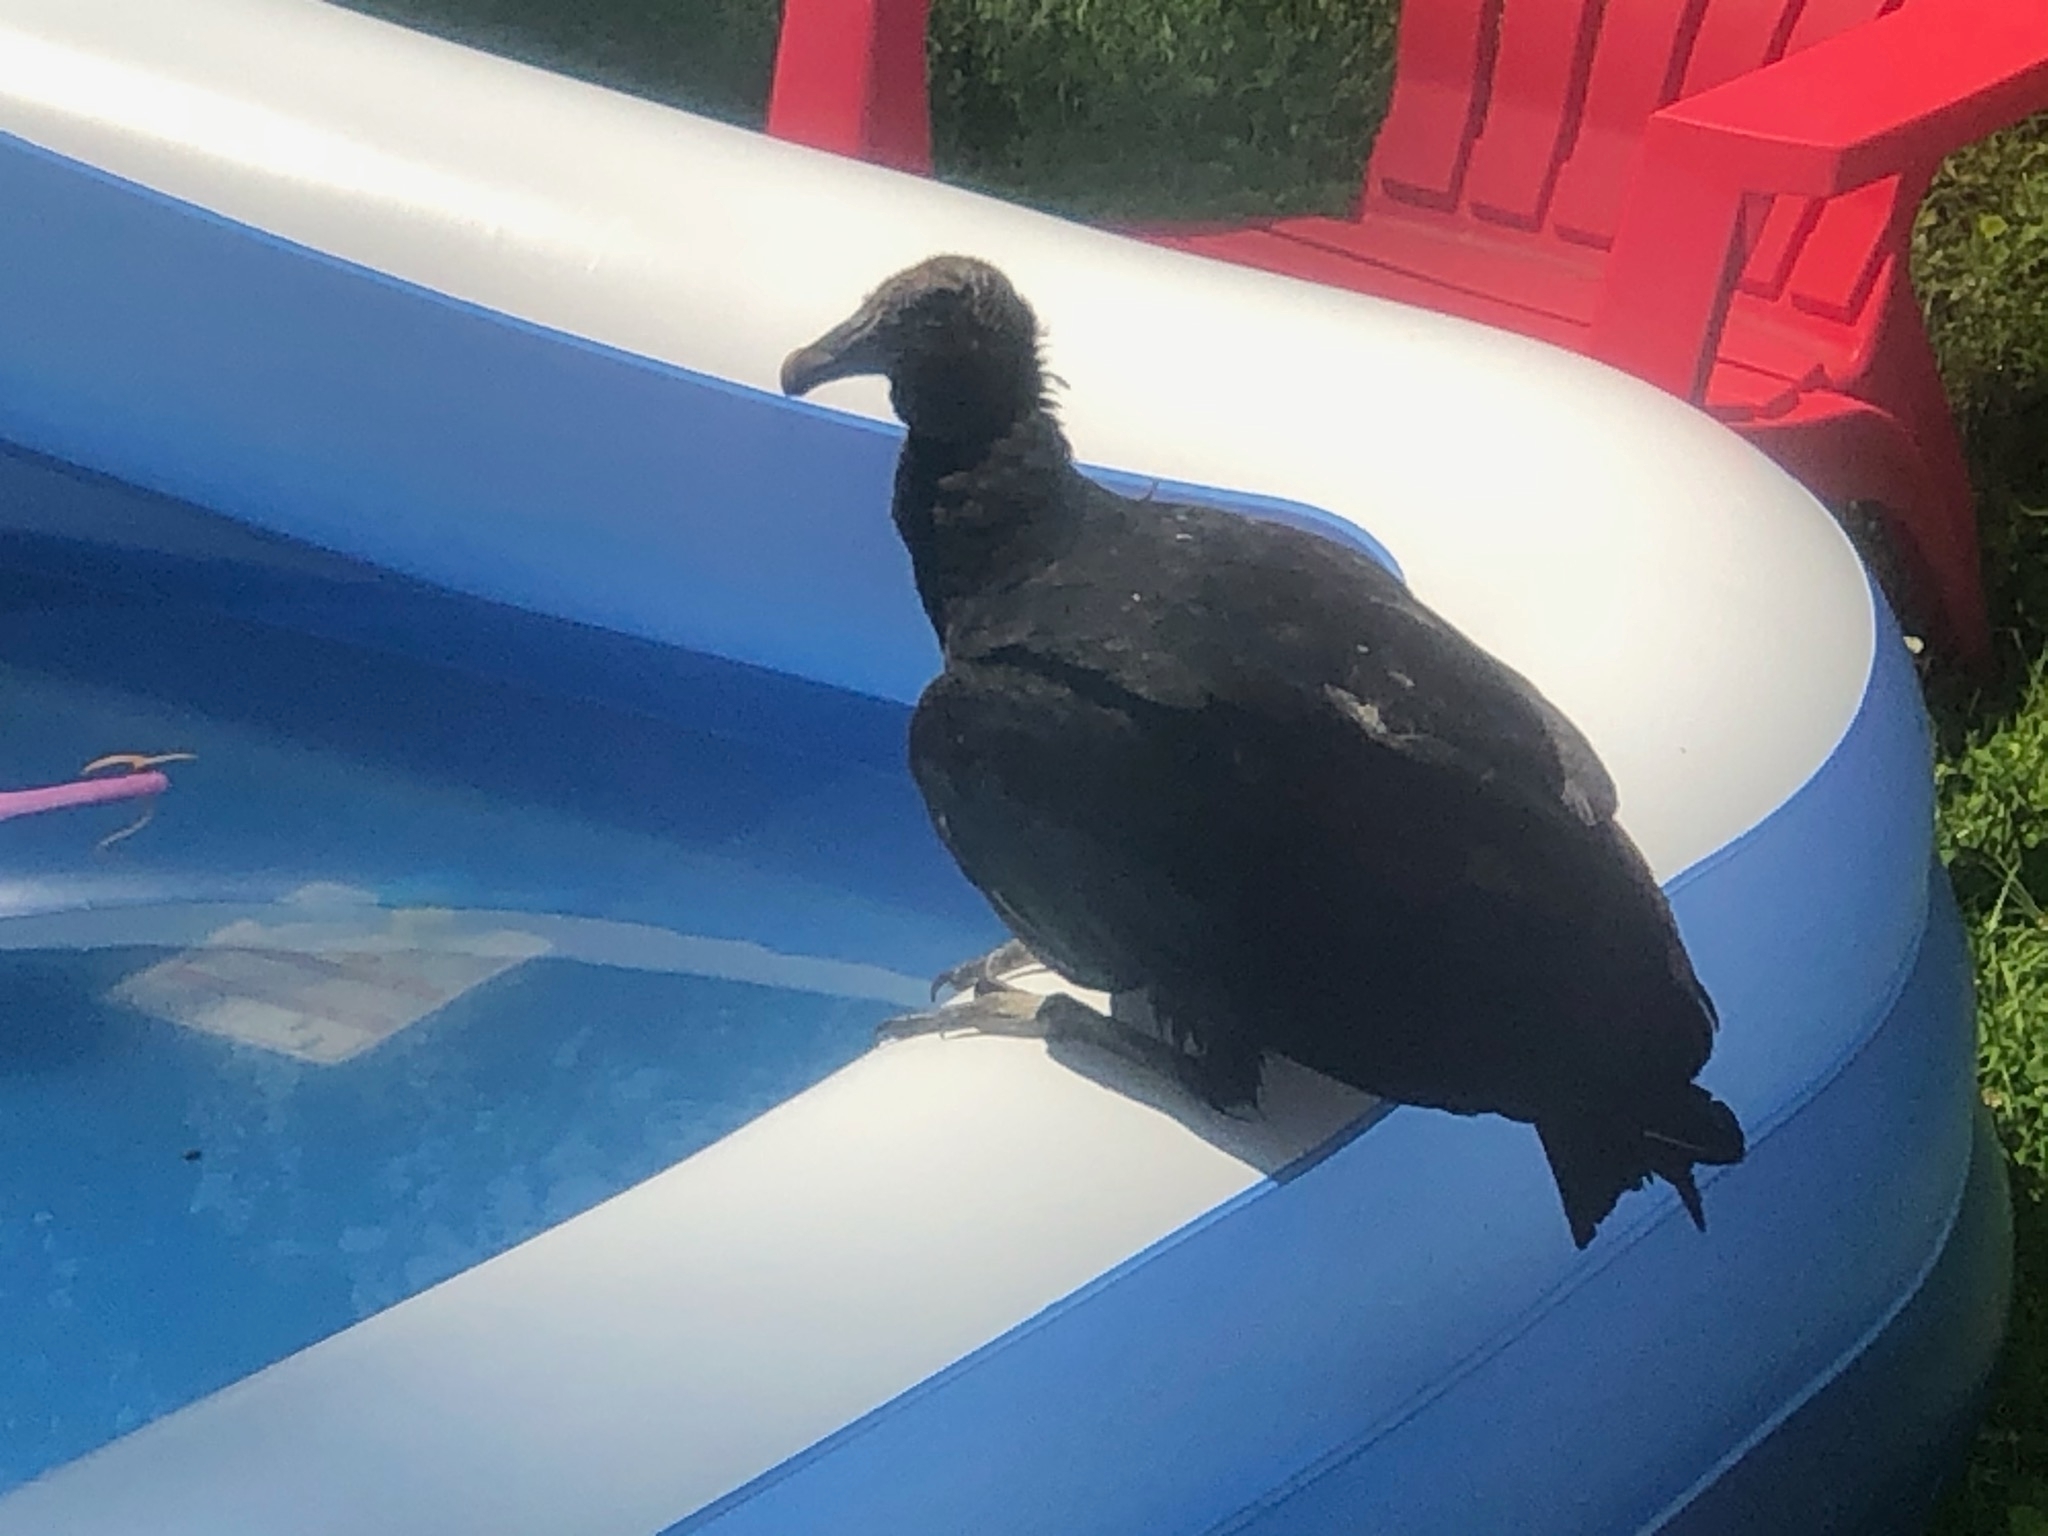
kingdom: Animalia
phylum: Chordata
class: Aves
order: Accipitriformes
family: Cathartidae
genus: Coragyps
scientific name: Coragyps atratus
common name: Black vulture
